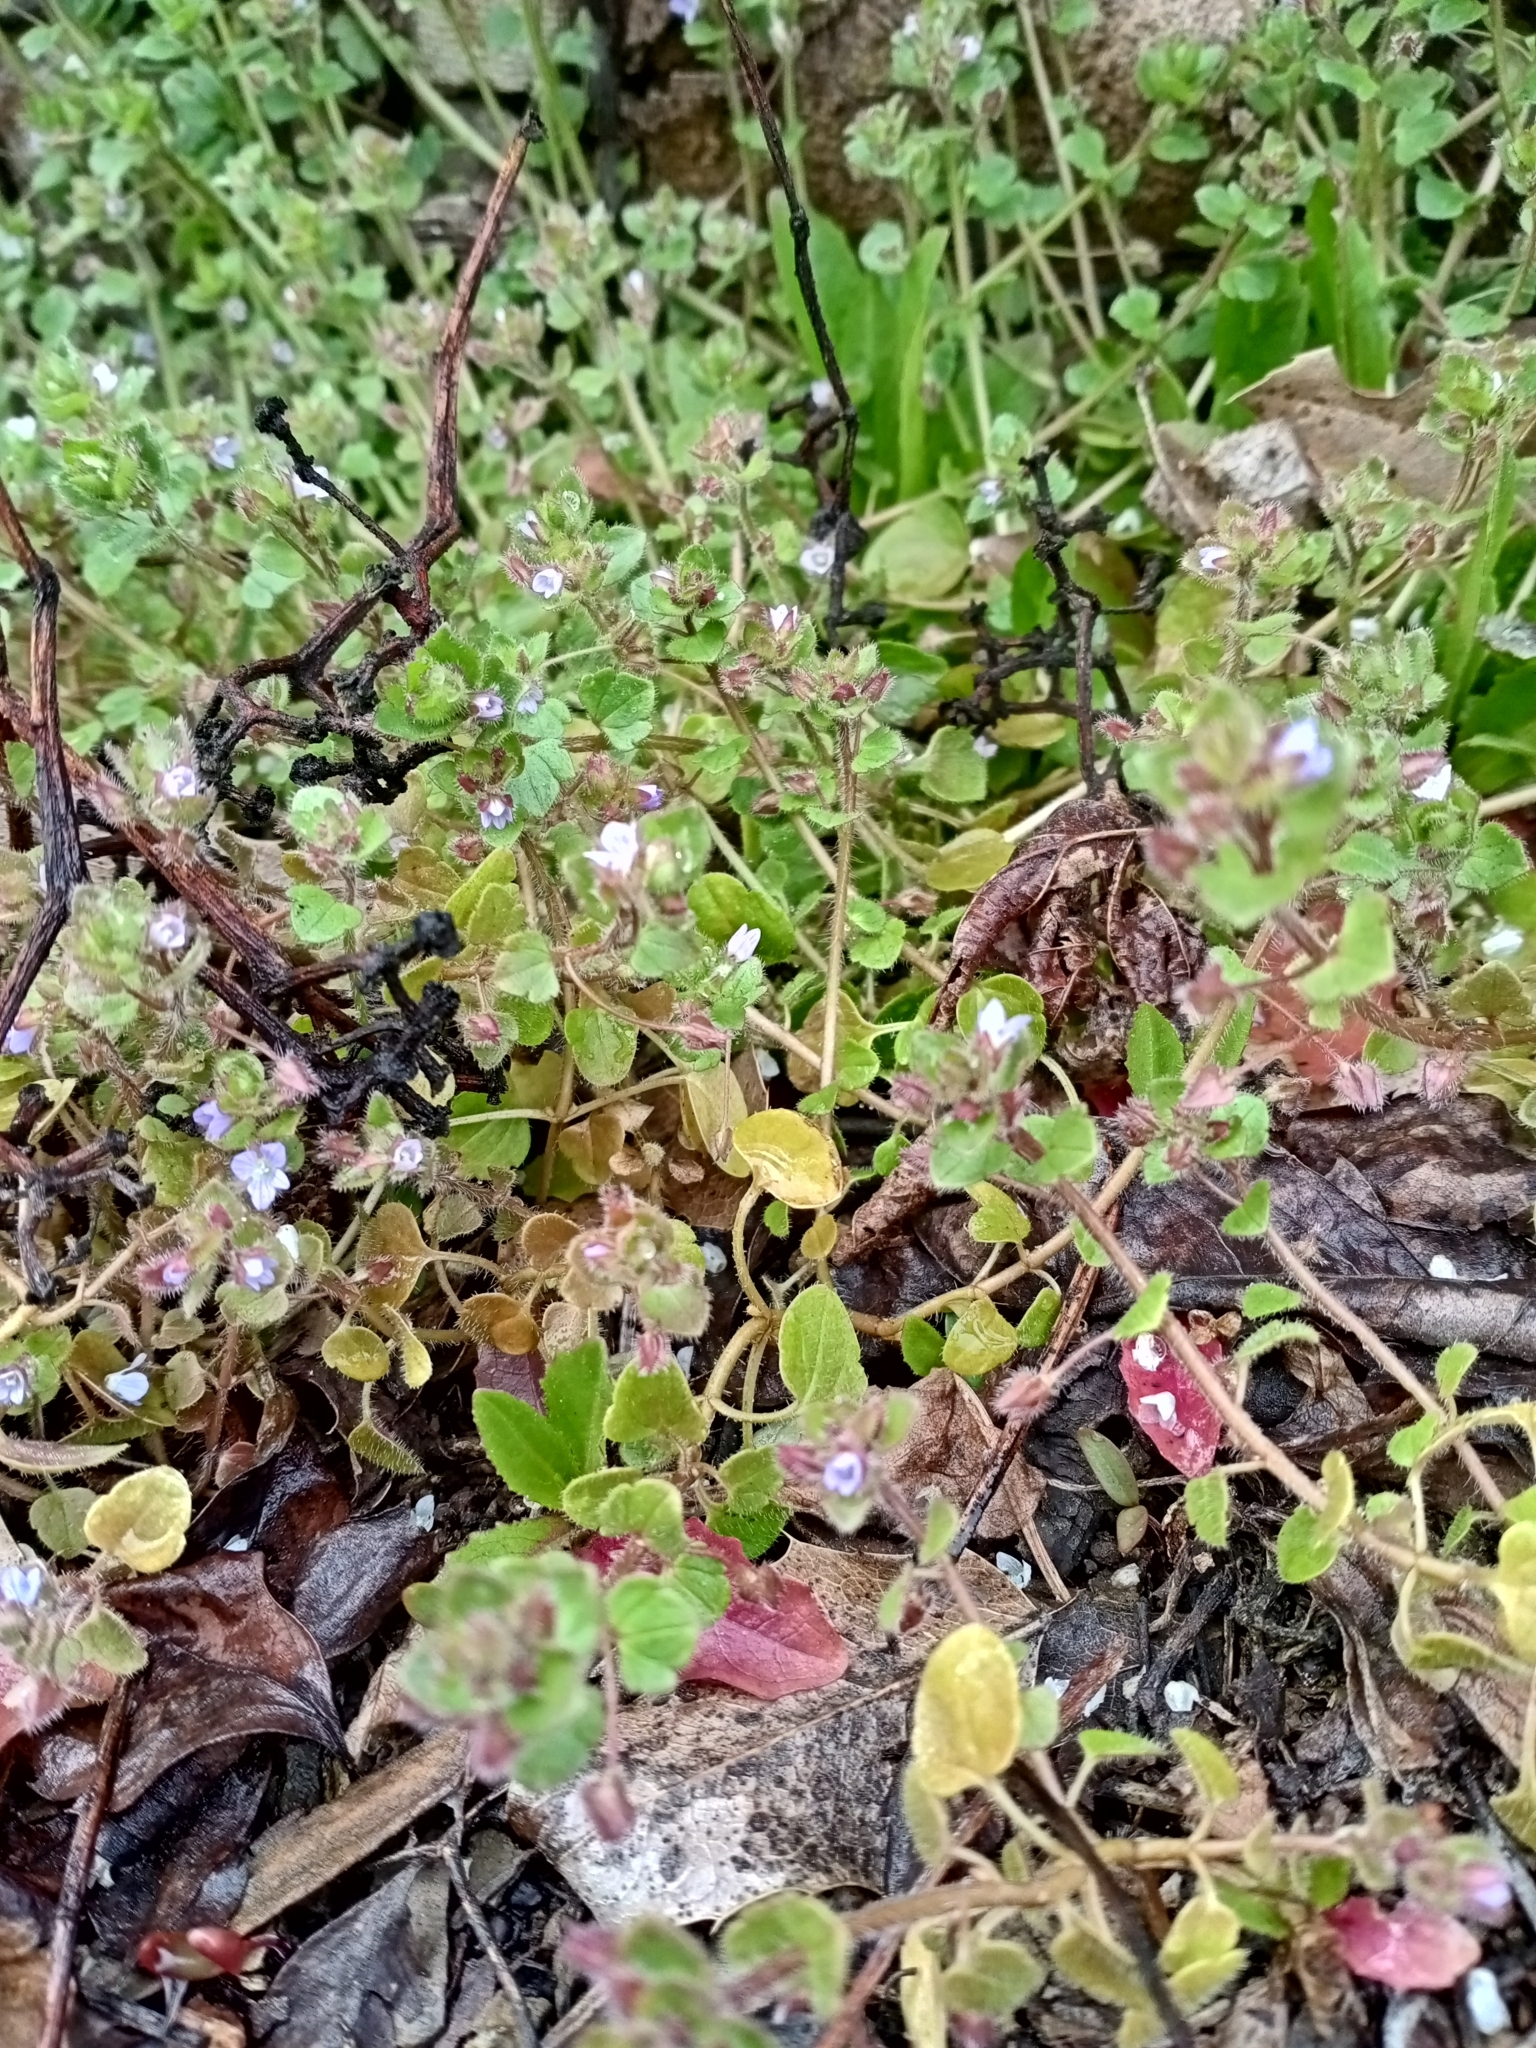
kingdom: Plantae
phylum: Tracheophyta
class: Magnoliopsida
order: Lamiales
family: Plantaginaceae
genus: Veronica
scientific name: Veronica sublobata
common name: False ivy-leaved speedwell
